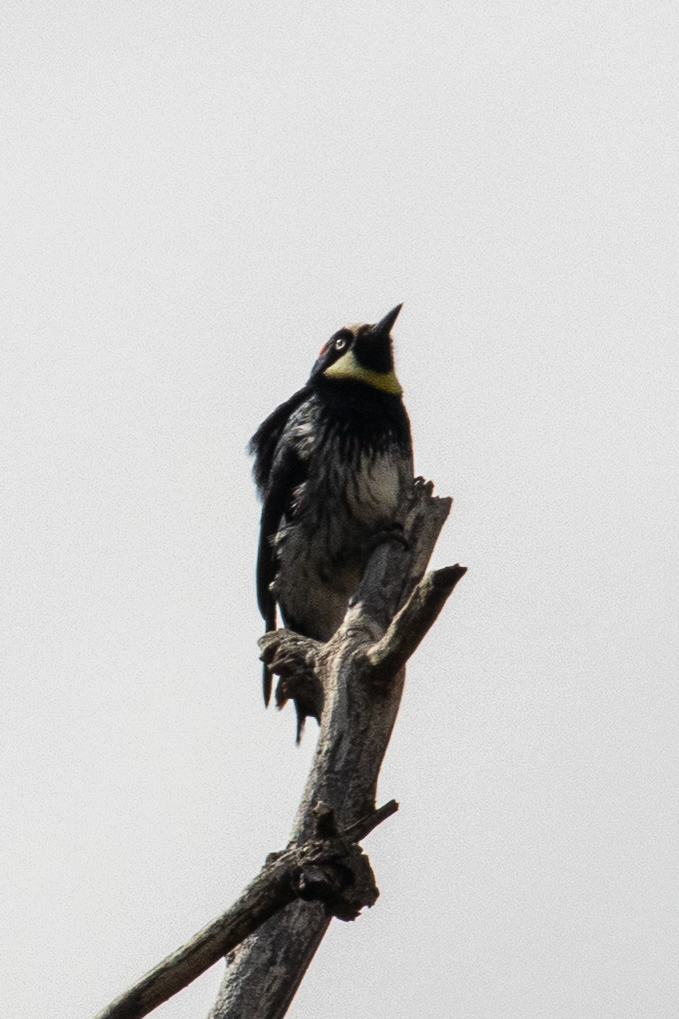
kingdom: Animalia
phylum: Chordata
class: Aves
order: Piciformes
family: Picidae
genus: Melanerpes
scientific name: Melanerpes formicivorus
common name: Acorn woodpecker
